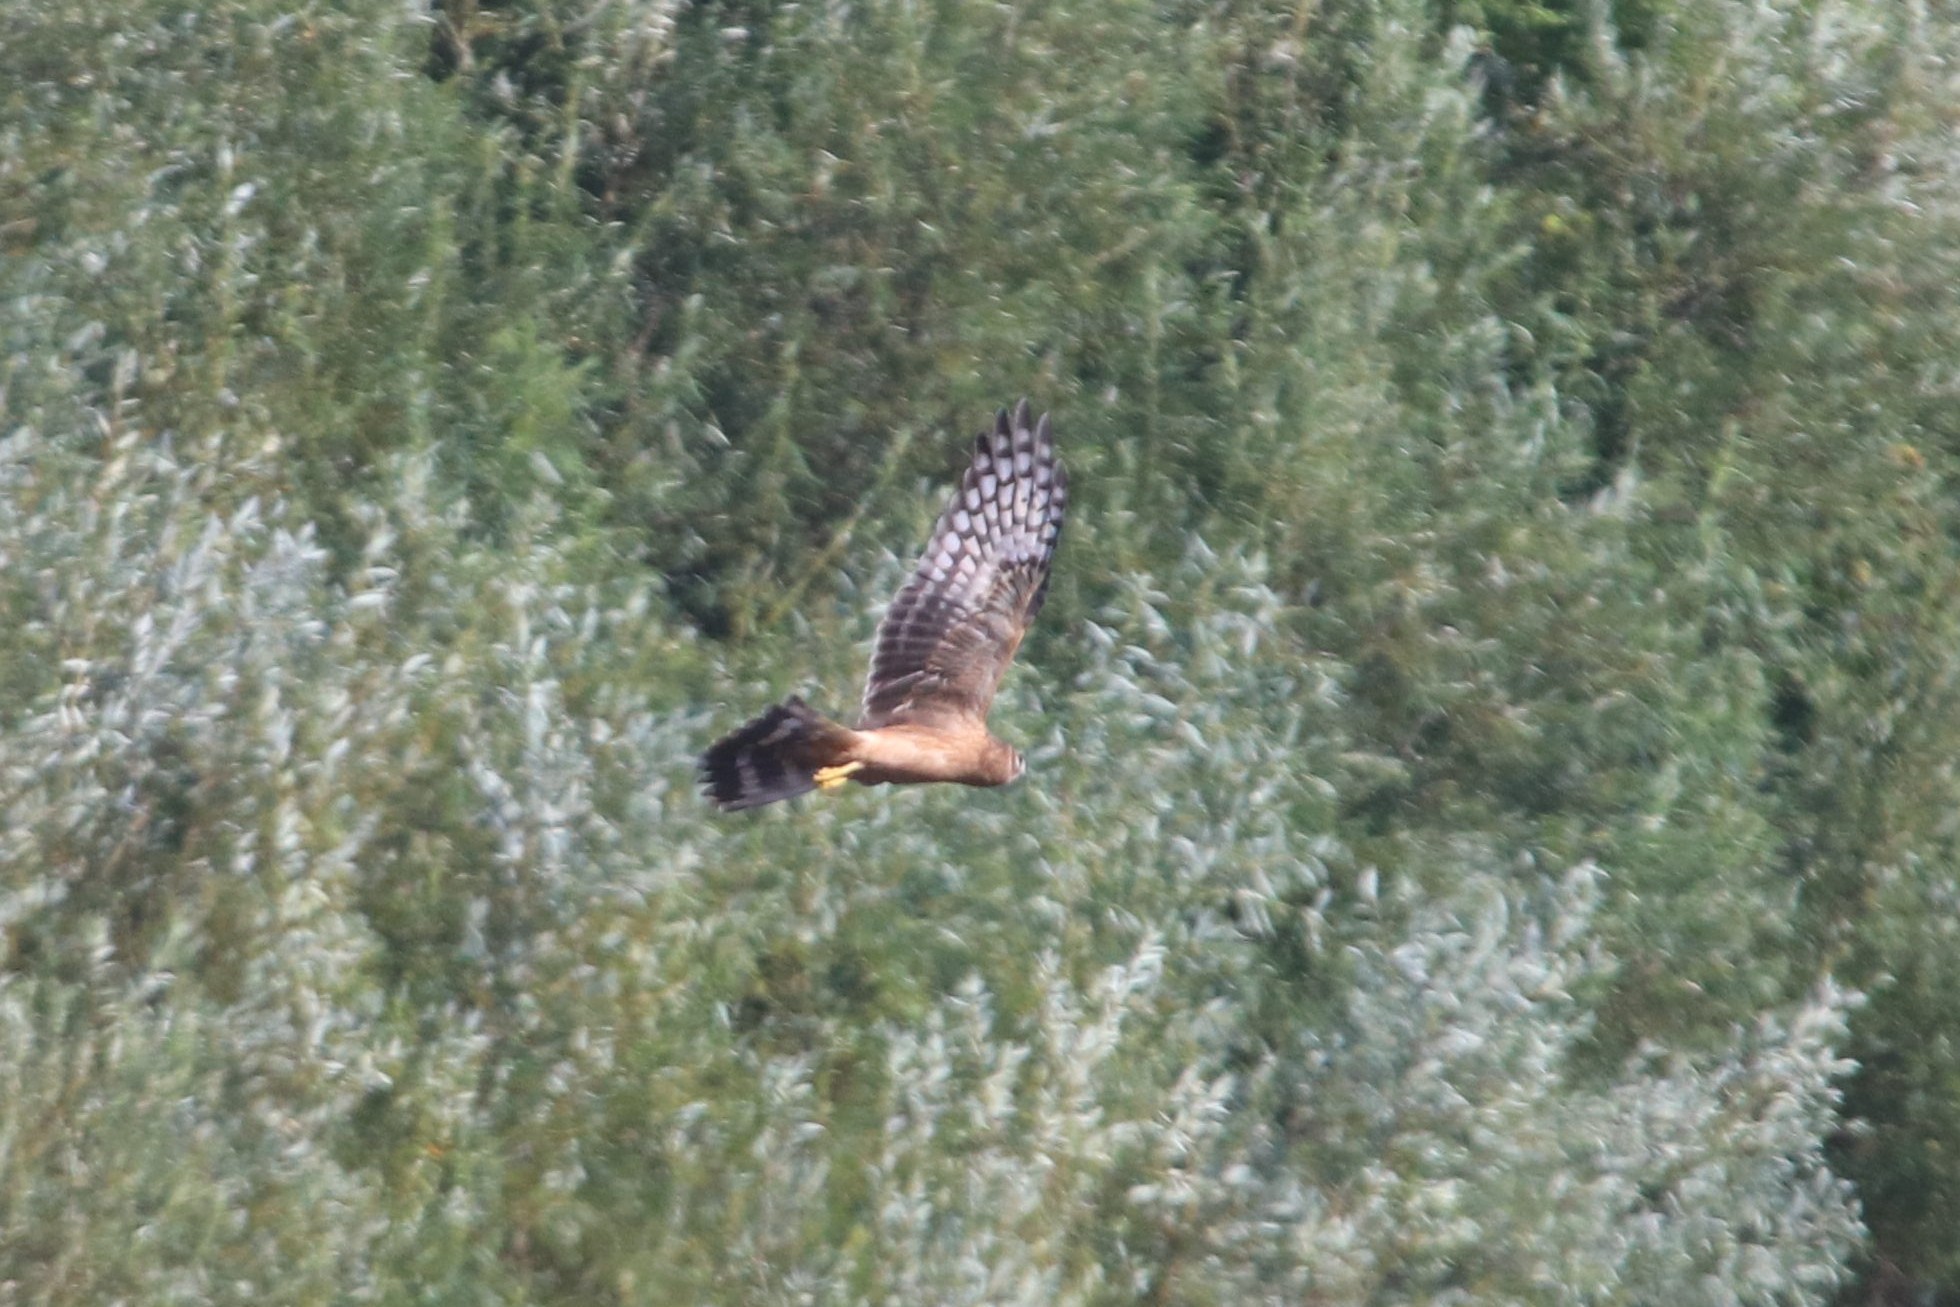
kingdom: Animalia
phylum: Chordata
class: Aves
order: Accipitriformes
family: Accipitridae
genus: Circus
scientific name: Circus cyaneus
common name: Hen harrier
